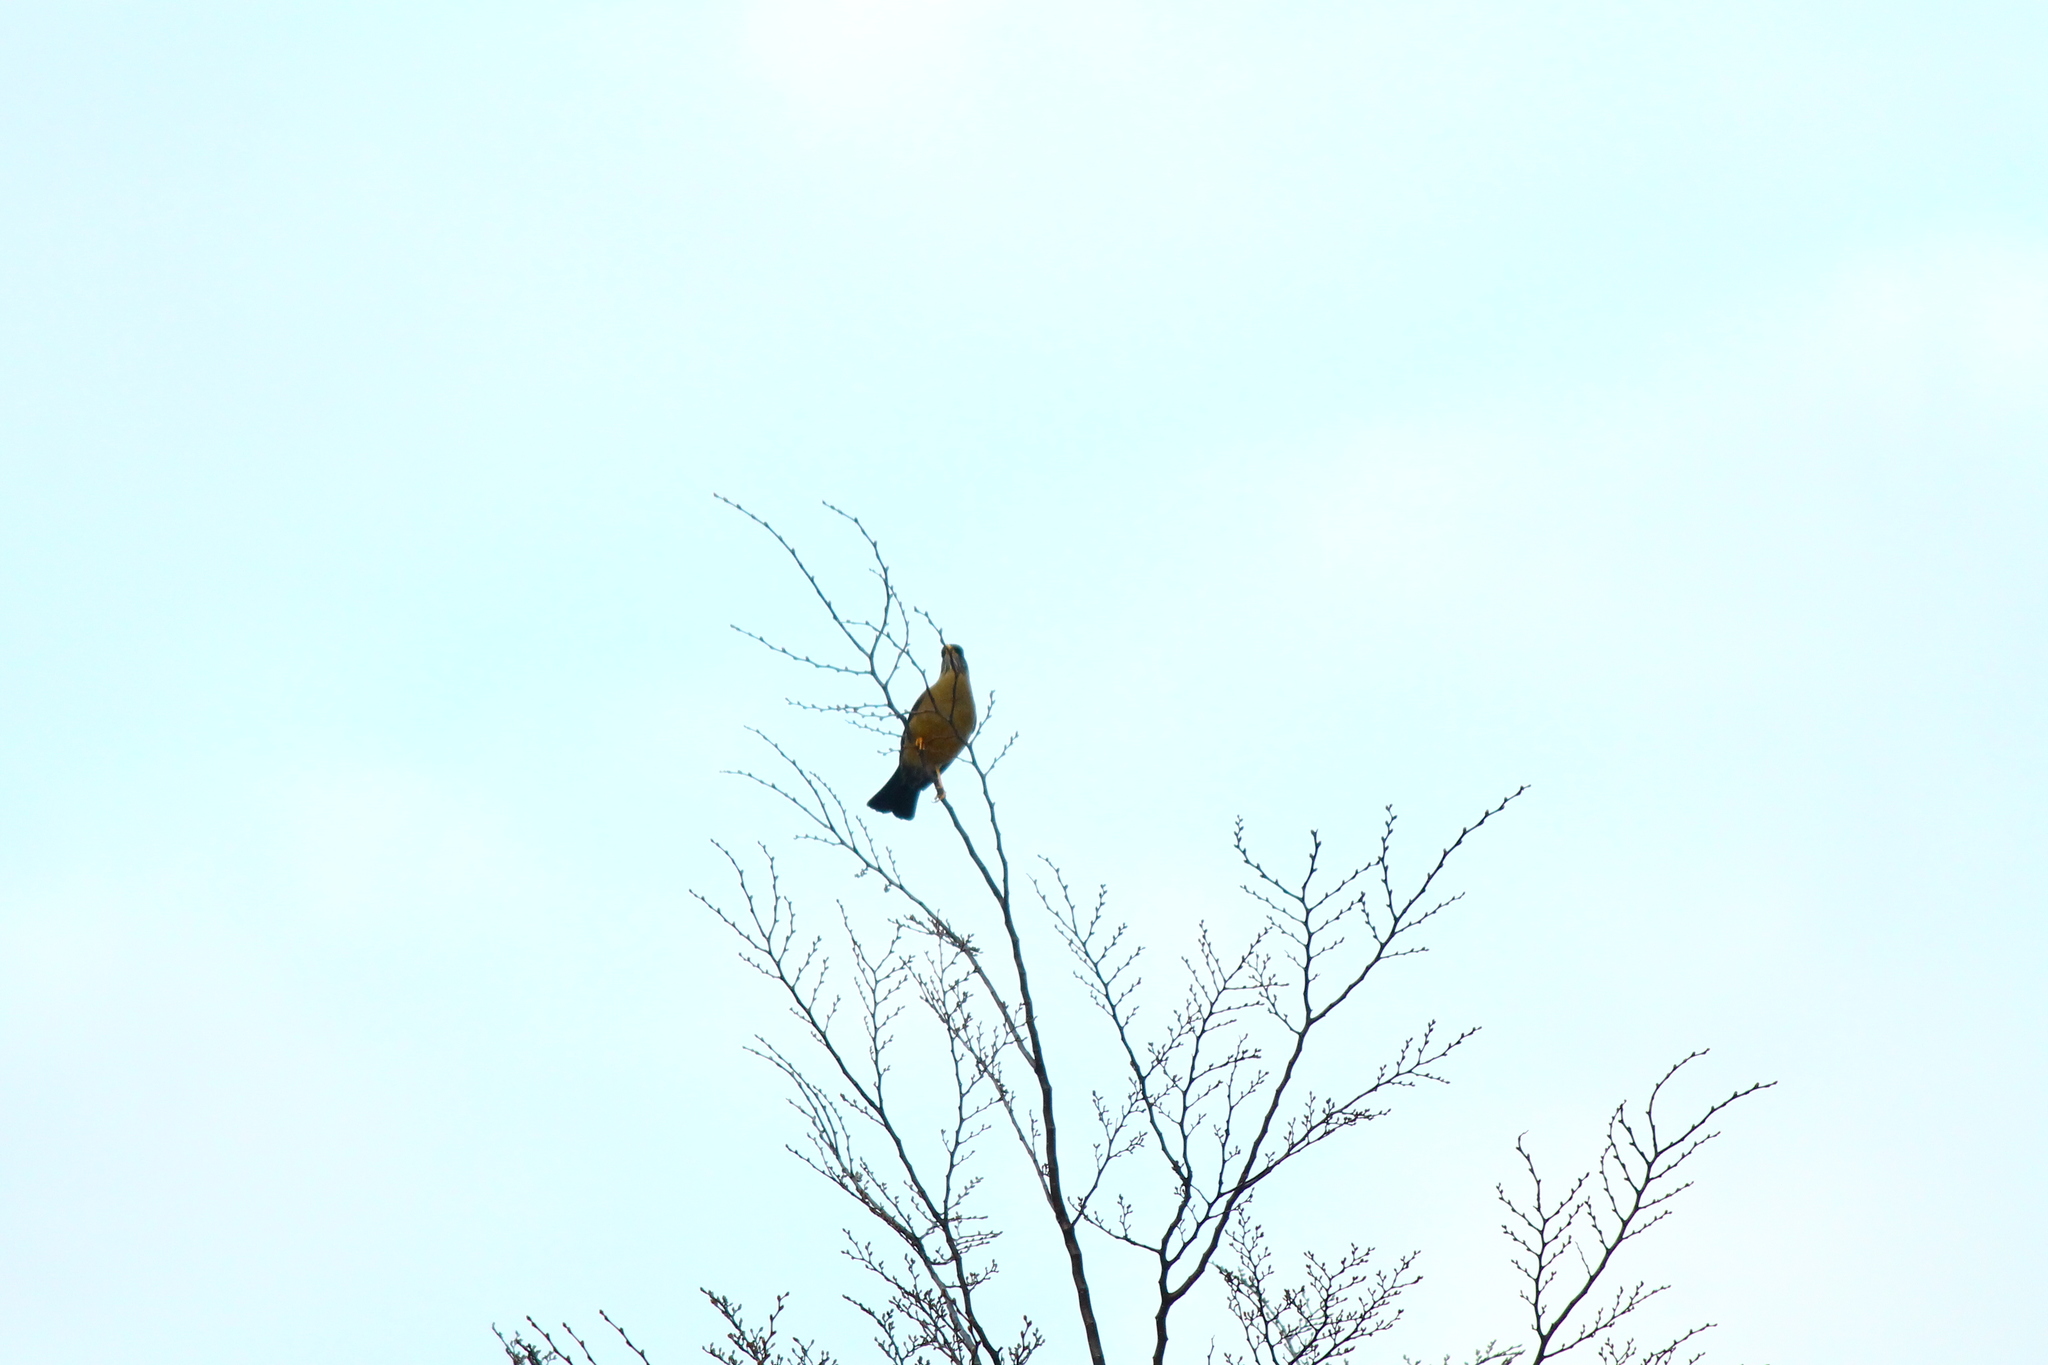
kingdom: Animalia
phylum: Chordata
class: Aves
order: Passeriformes
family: Turdidae
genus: Turdus
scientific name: Turdus falcklandii
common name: Austral thrush
